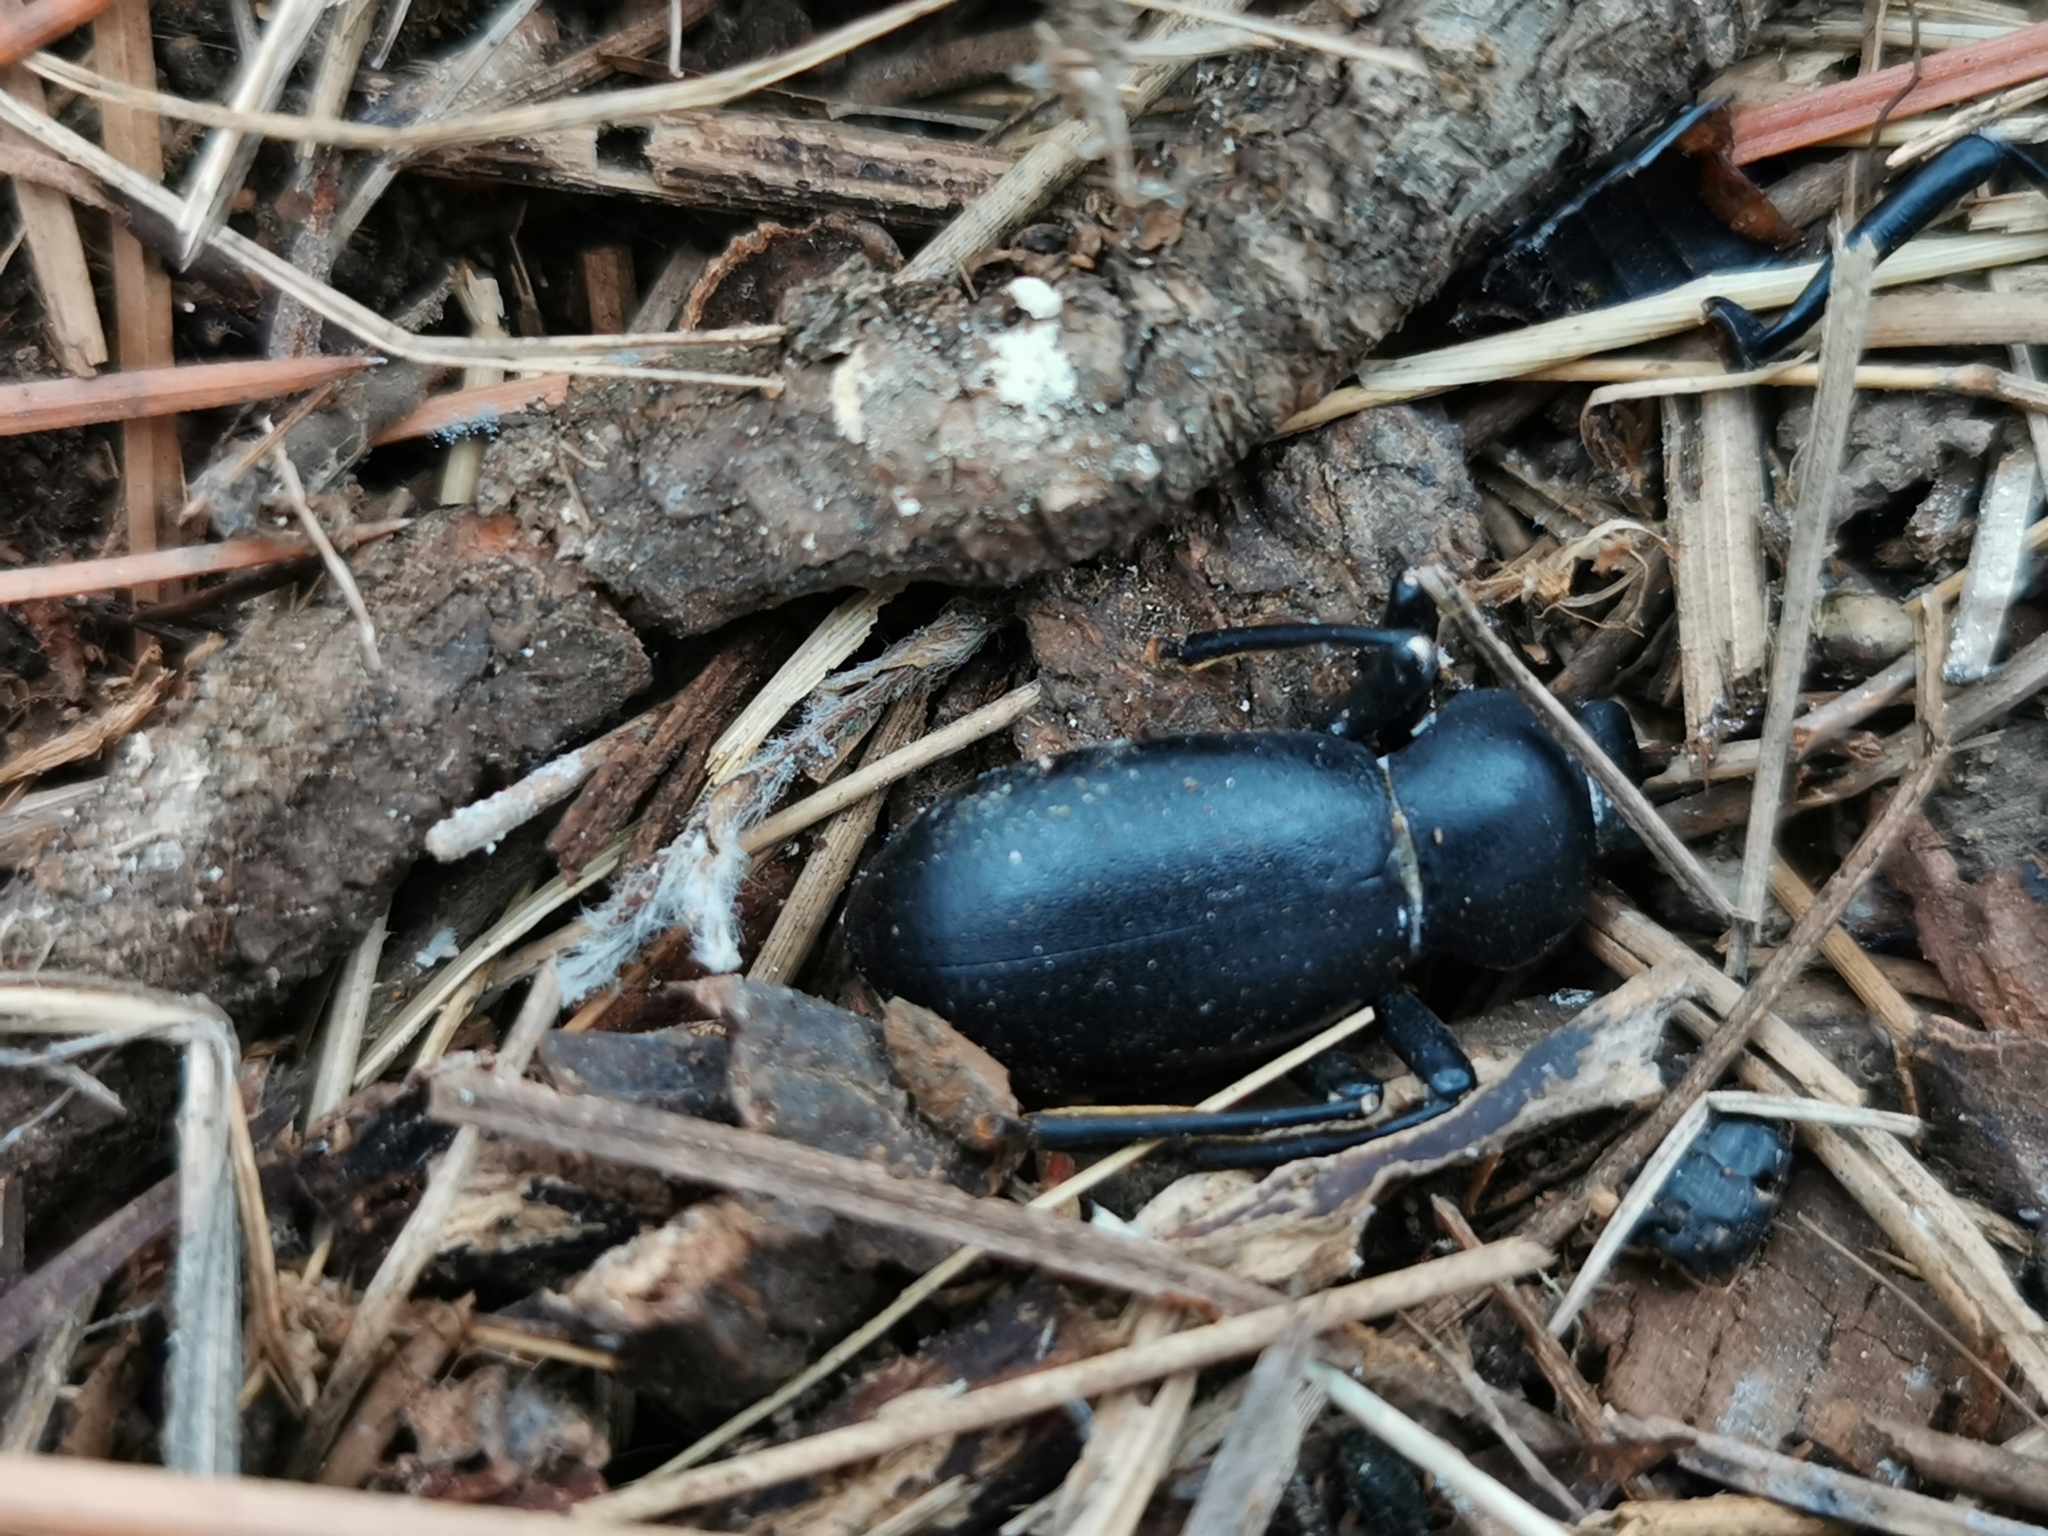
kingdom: Animalia
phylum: Arthropoda
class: Insecta
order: Coleoptera
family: Tenebrionidae
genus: Coelocnemis
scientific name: Coelocnemis dilaticollis
